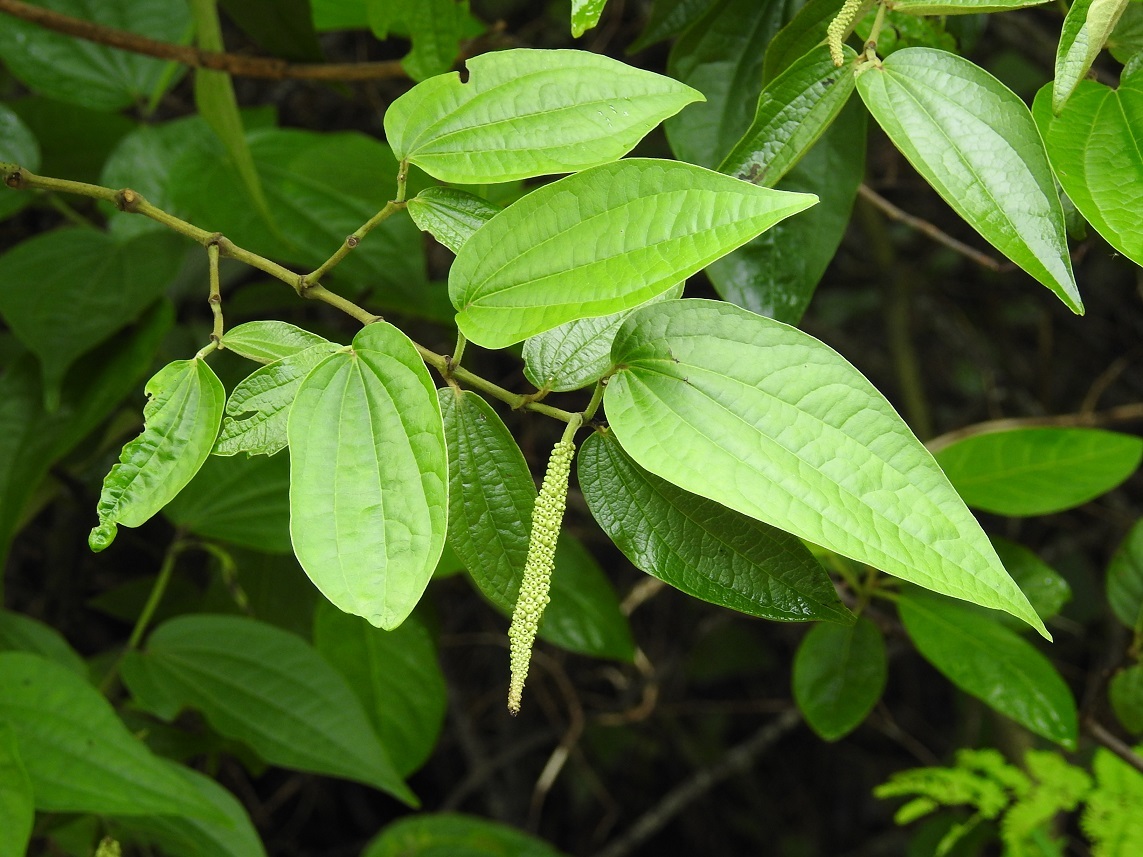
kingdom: Plantae
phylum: Tracheophyta
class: Magnoliopsida
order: Piperales
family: Piperaceae
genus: Piper
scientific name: Piper jacquemontianum
